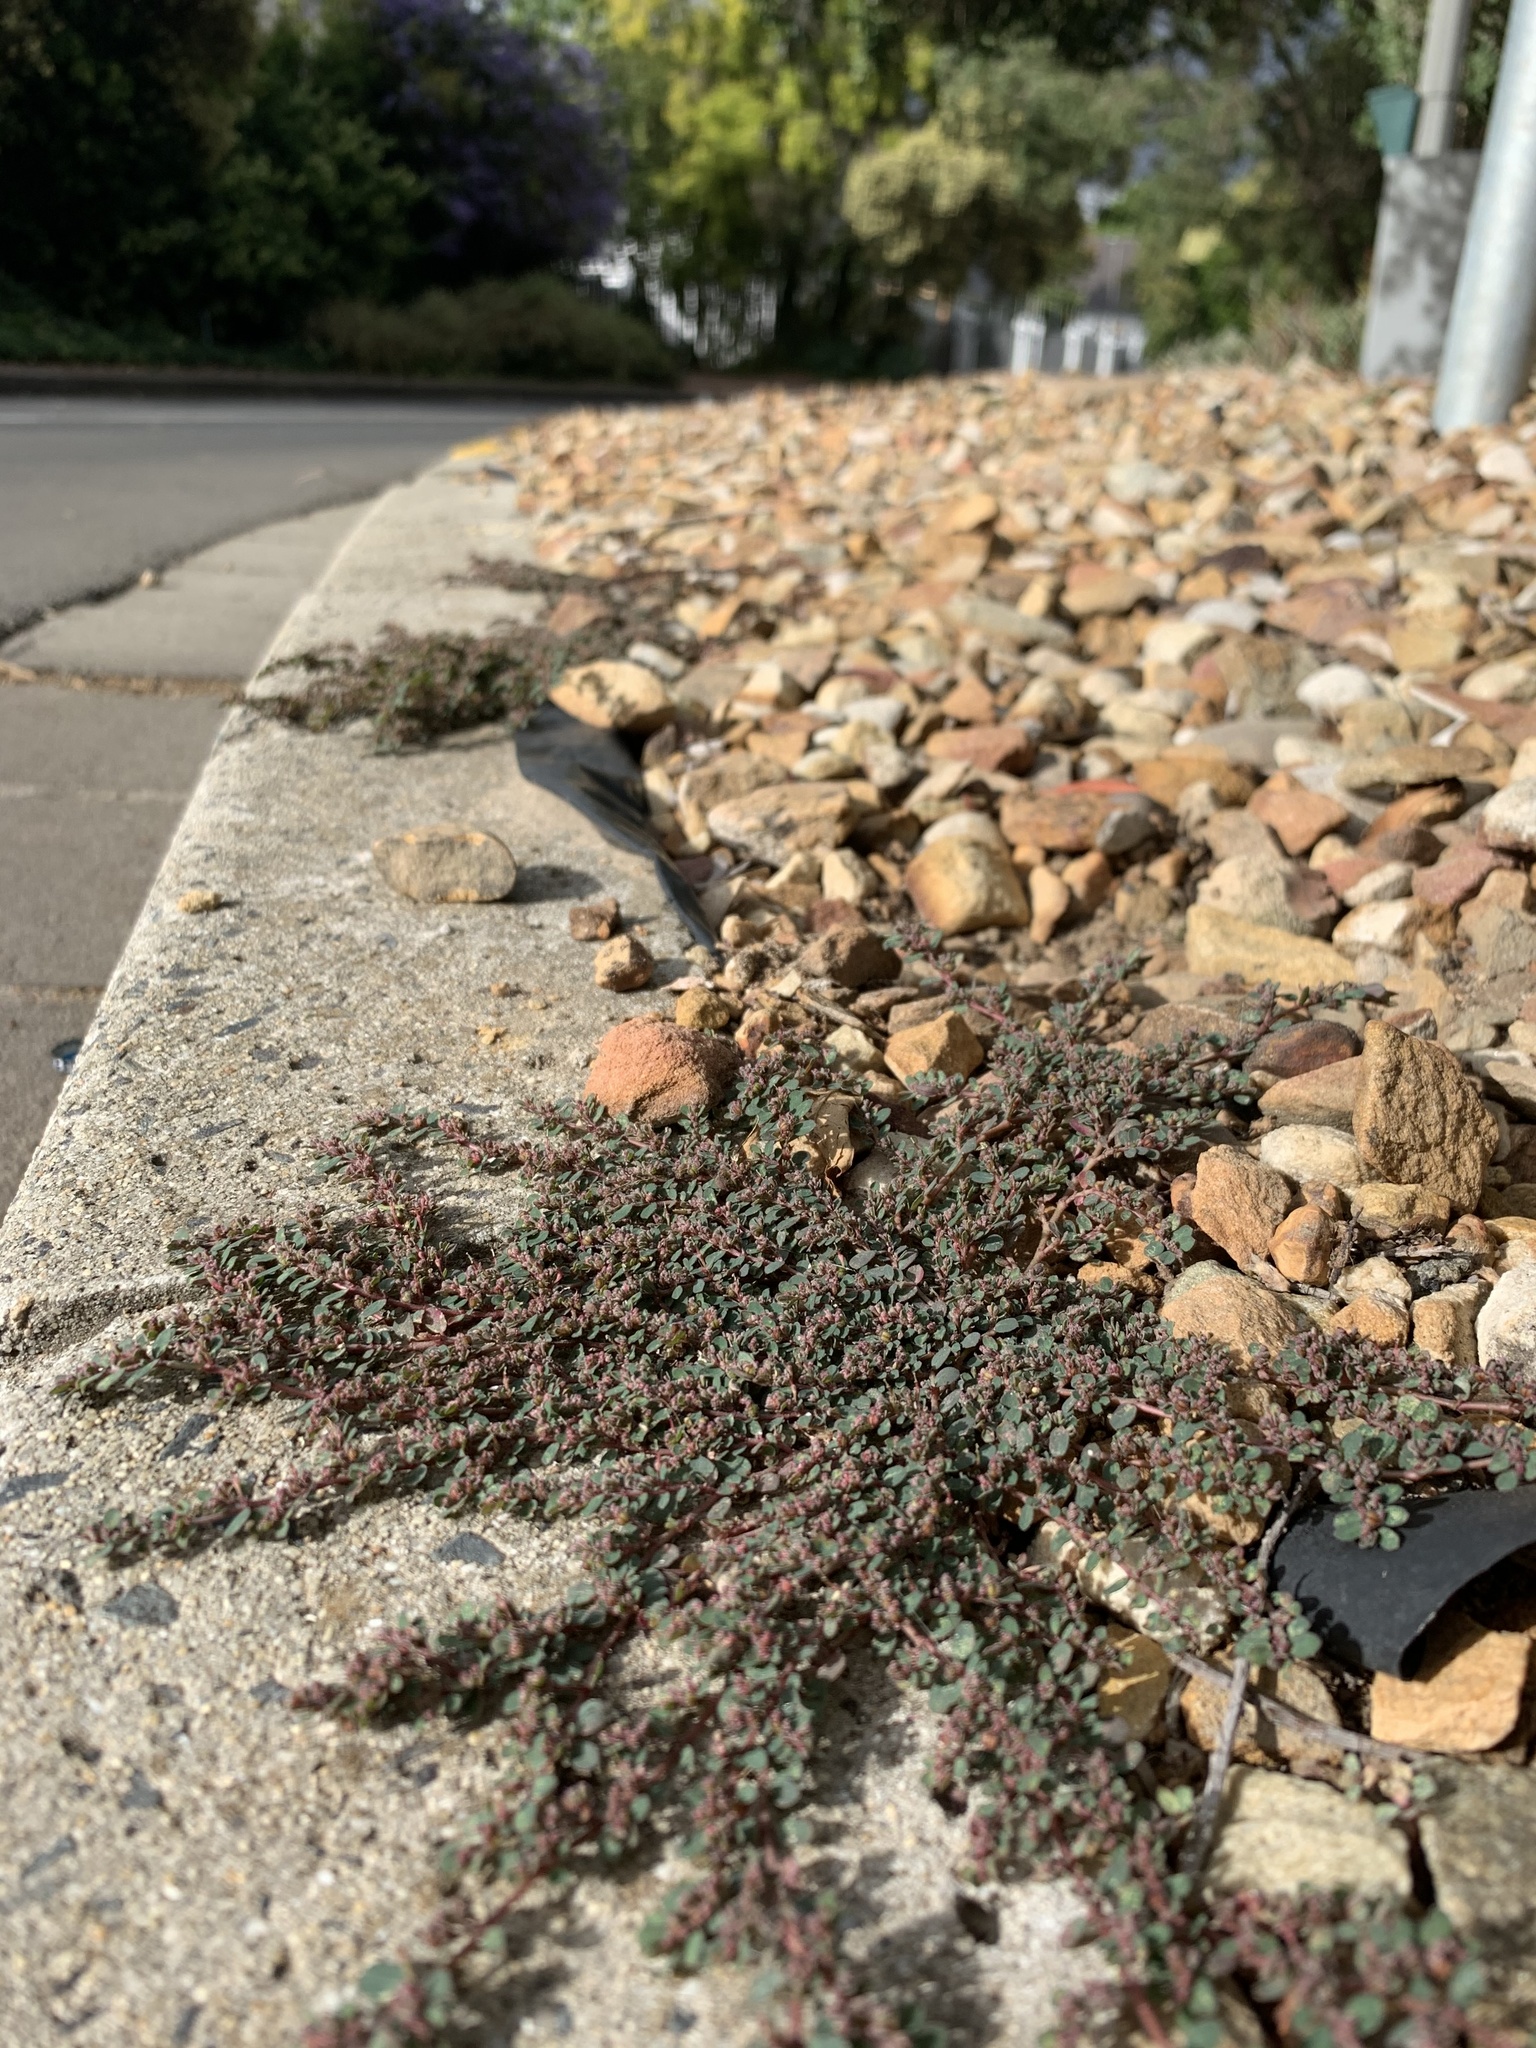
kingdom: Plantae
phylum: Tracheophyta
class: Magnoliopsida
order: Malpighiales
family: Euphorbiaceae
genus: Euphorbia
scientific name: Euphorbia prostrata
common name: Prostrate sandmat
